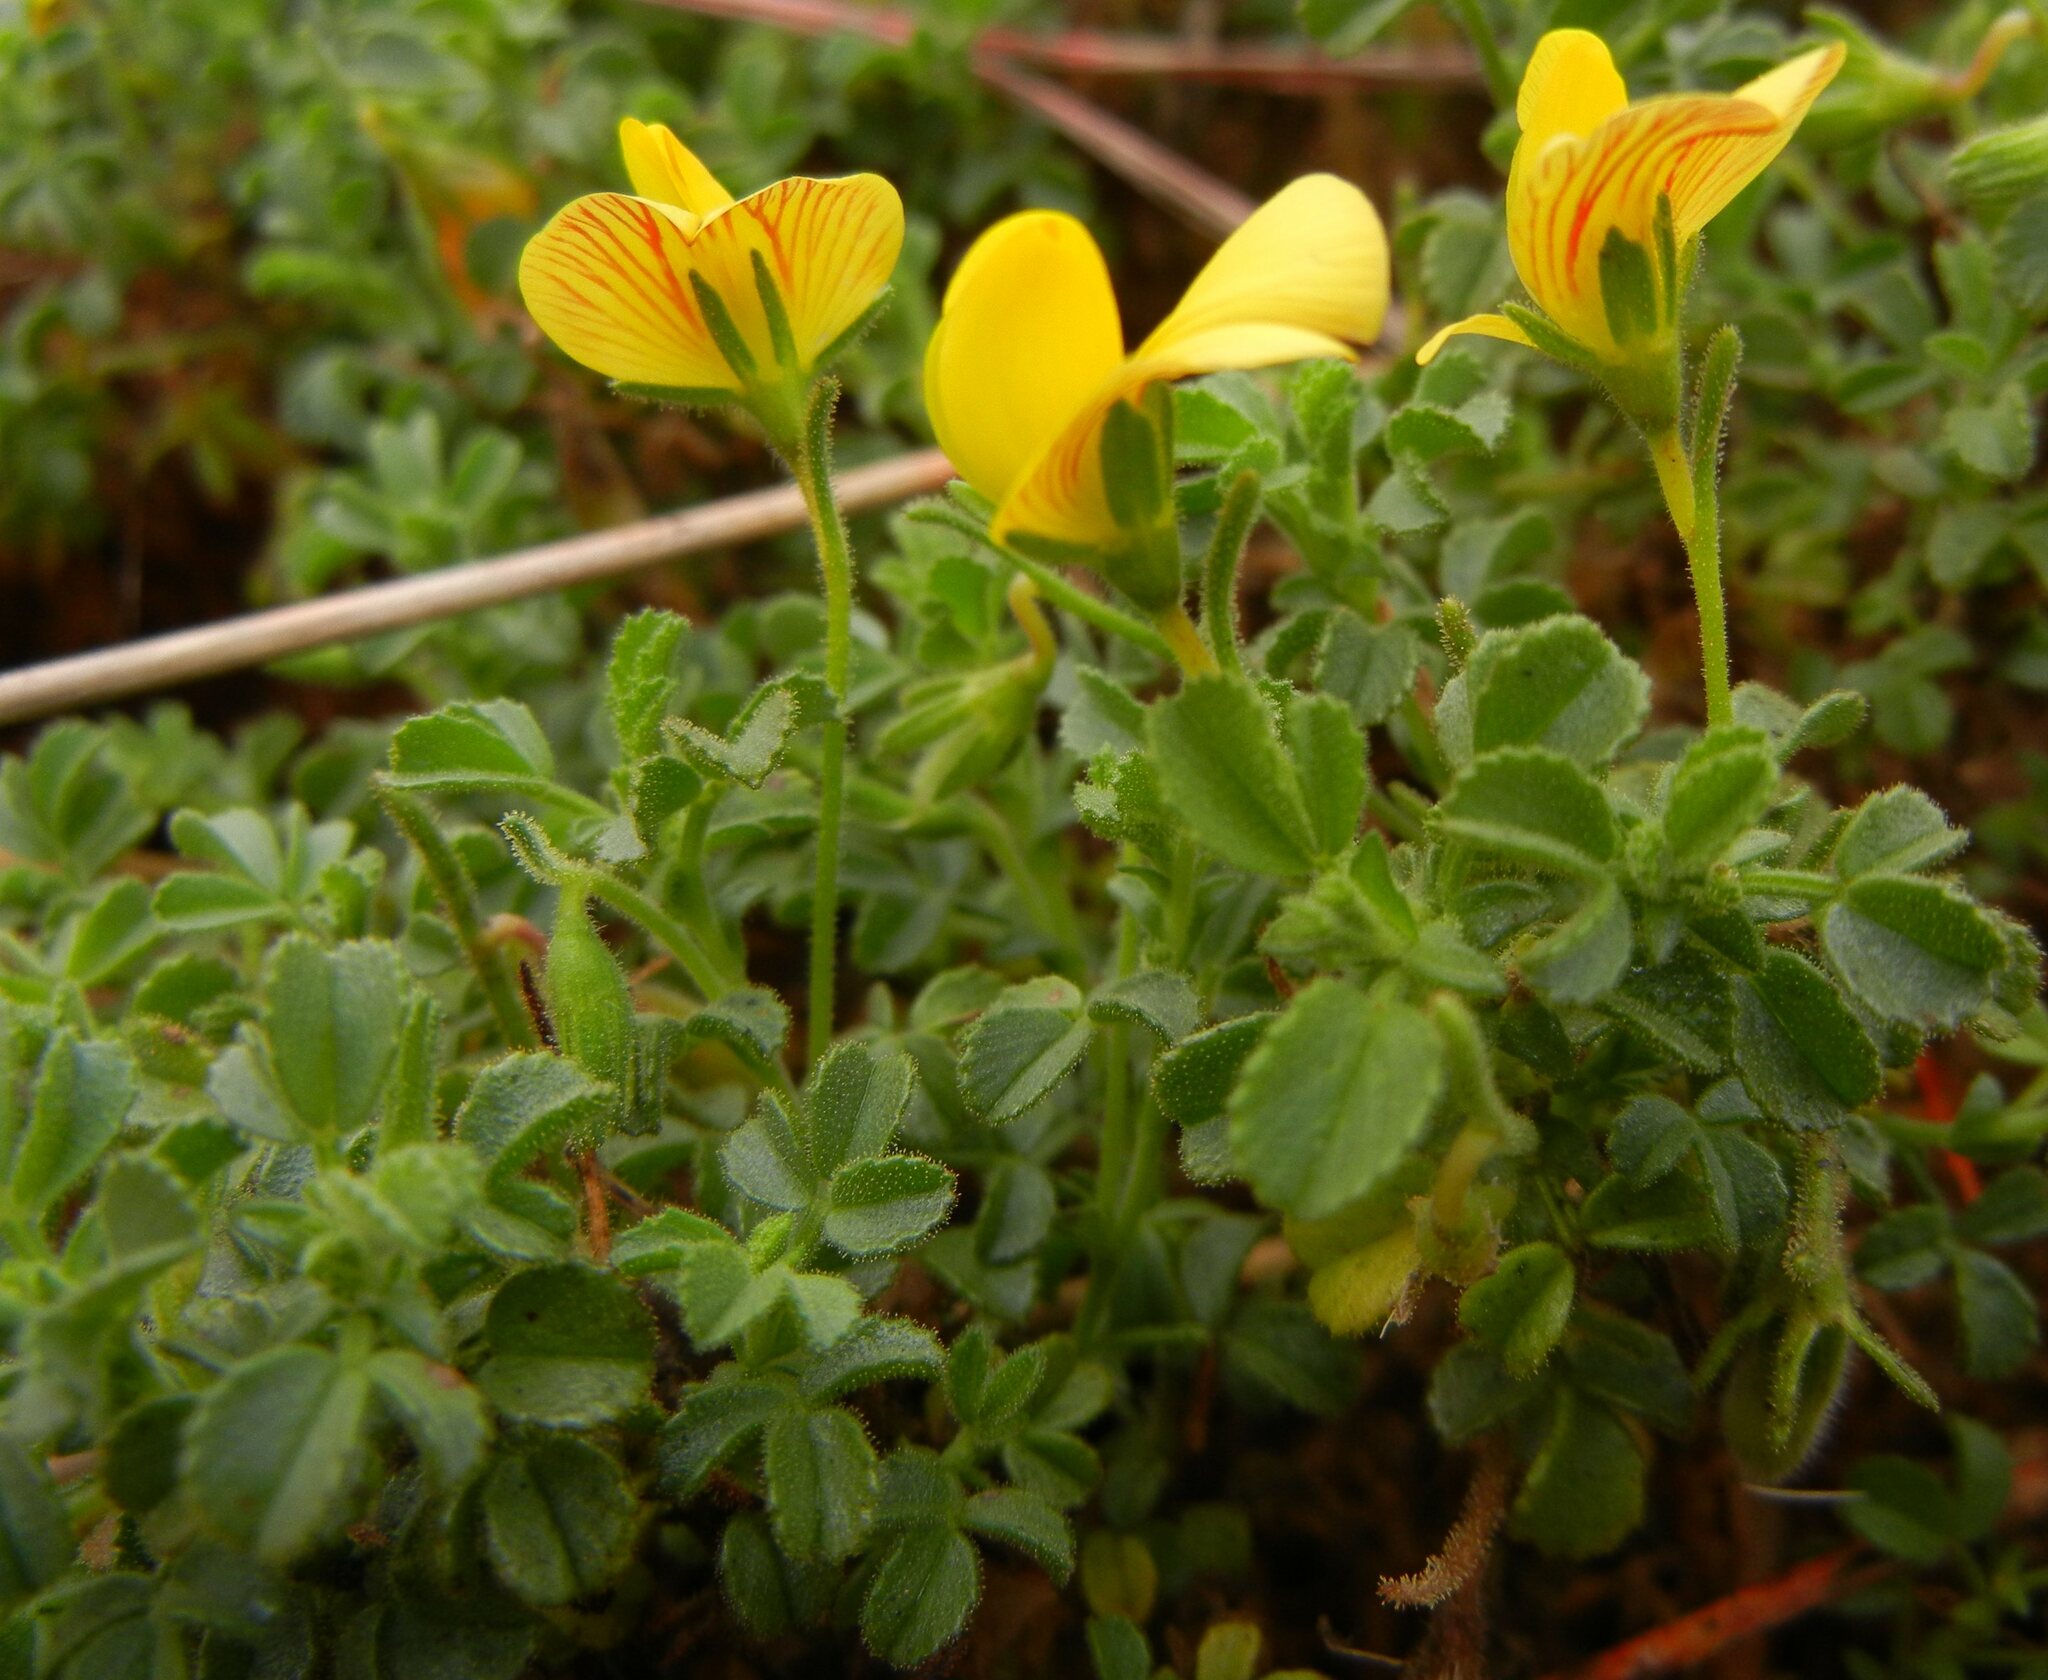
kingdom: Plantae
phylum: Tracheophyta
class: Magnoliopsida
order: Fabales
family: Fabaceae
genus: Ononis
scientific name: Ononis ramosissima
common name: Bush restharrow
